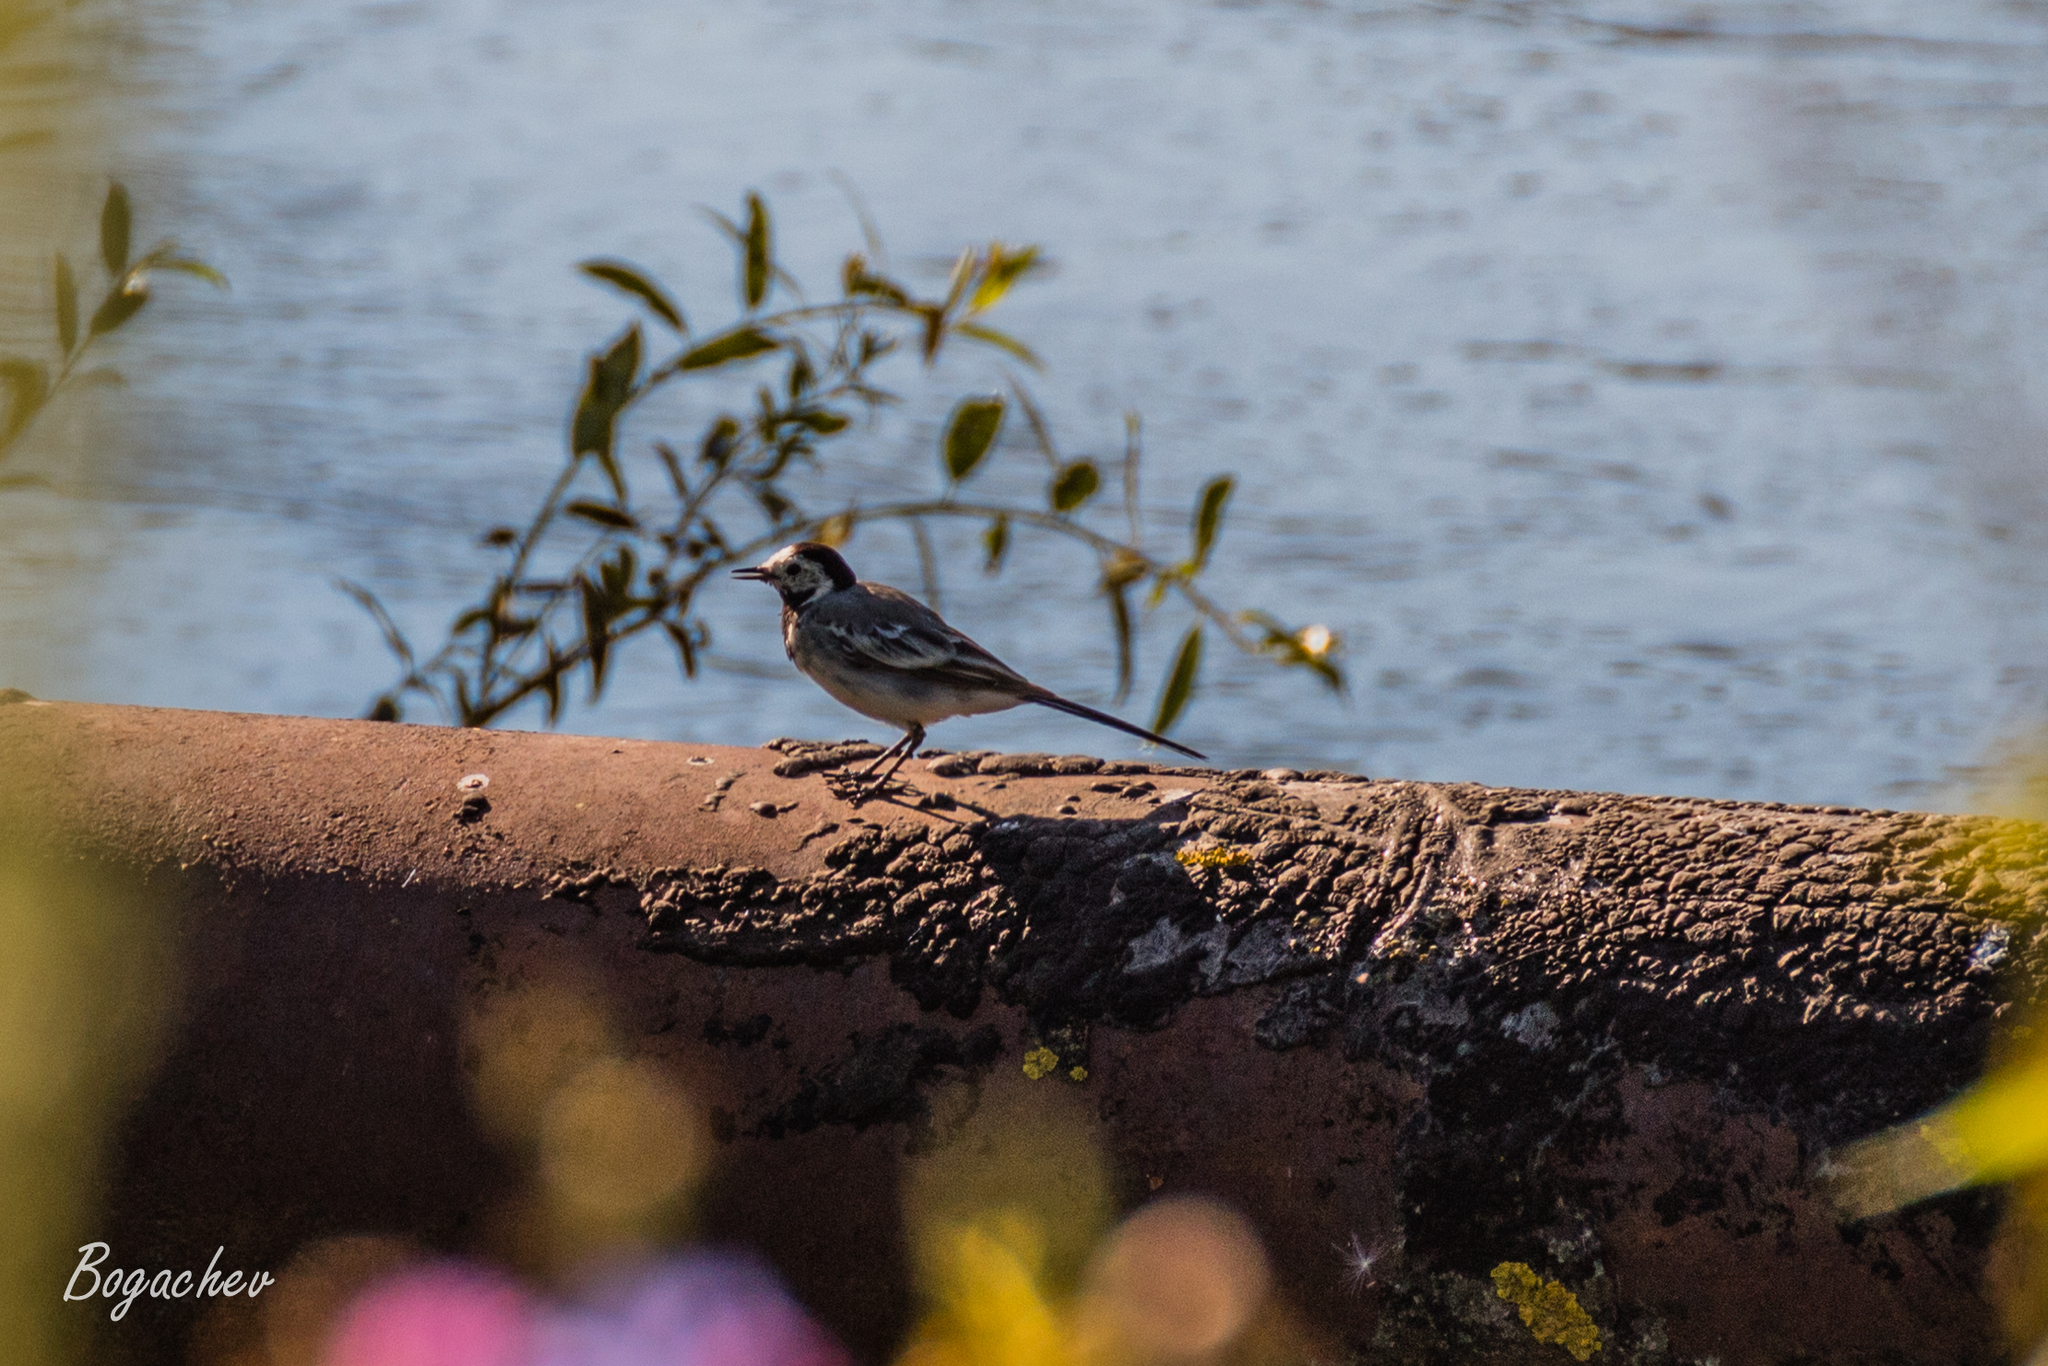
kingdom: Animalia
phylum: Chordata
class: Aves
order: Passeriformes
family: Motacillidae
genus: Motacilla
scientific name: Motacilla alba
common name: White wagtail
